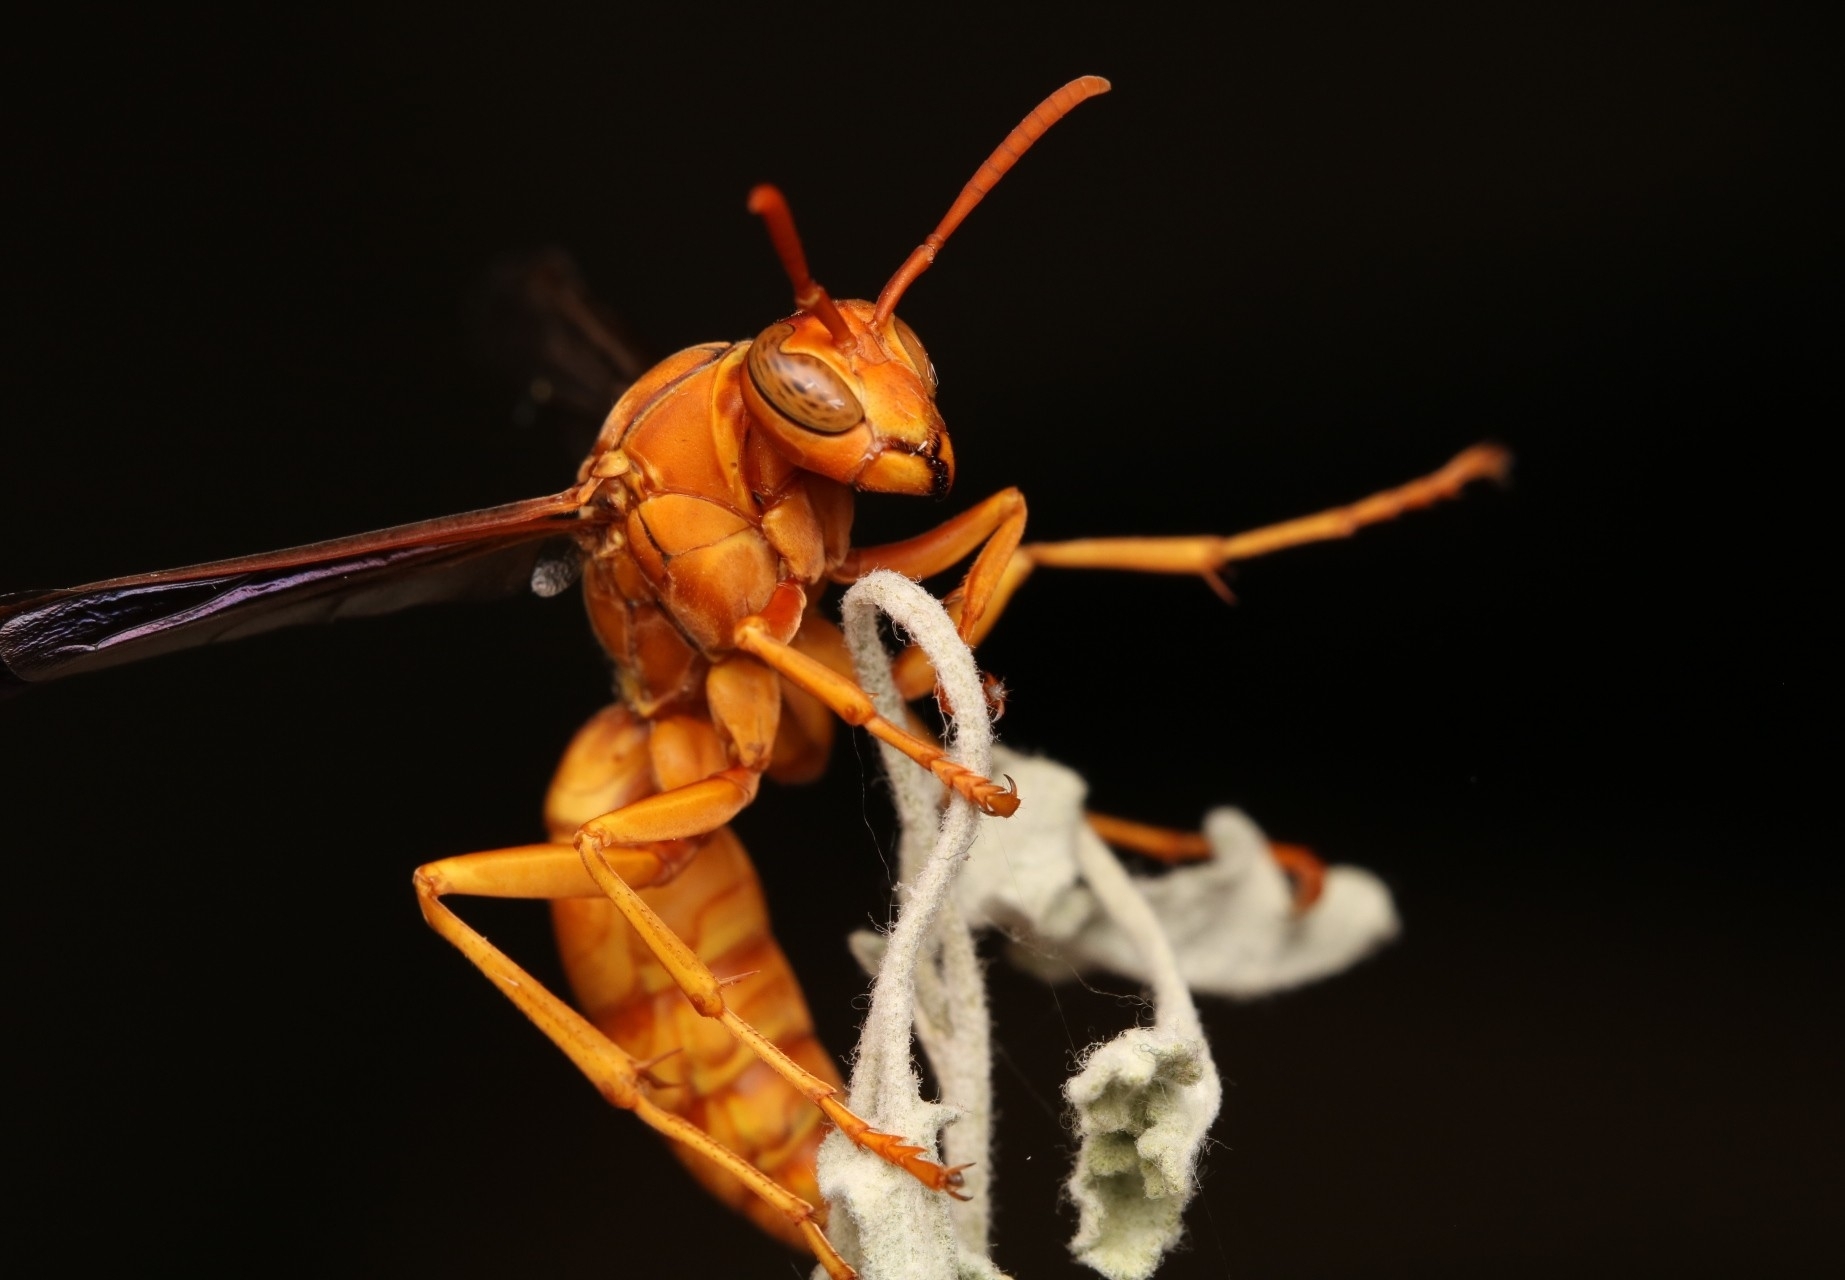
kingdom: Animalia
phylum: Arthropoda
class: Insecta
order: Hymenoptera
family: Eumenidae
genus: Polistes
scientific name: Polistes flavus
